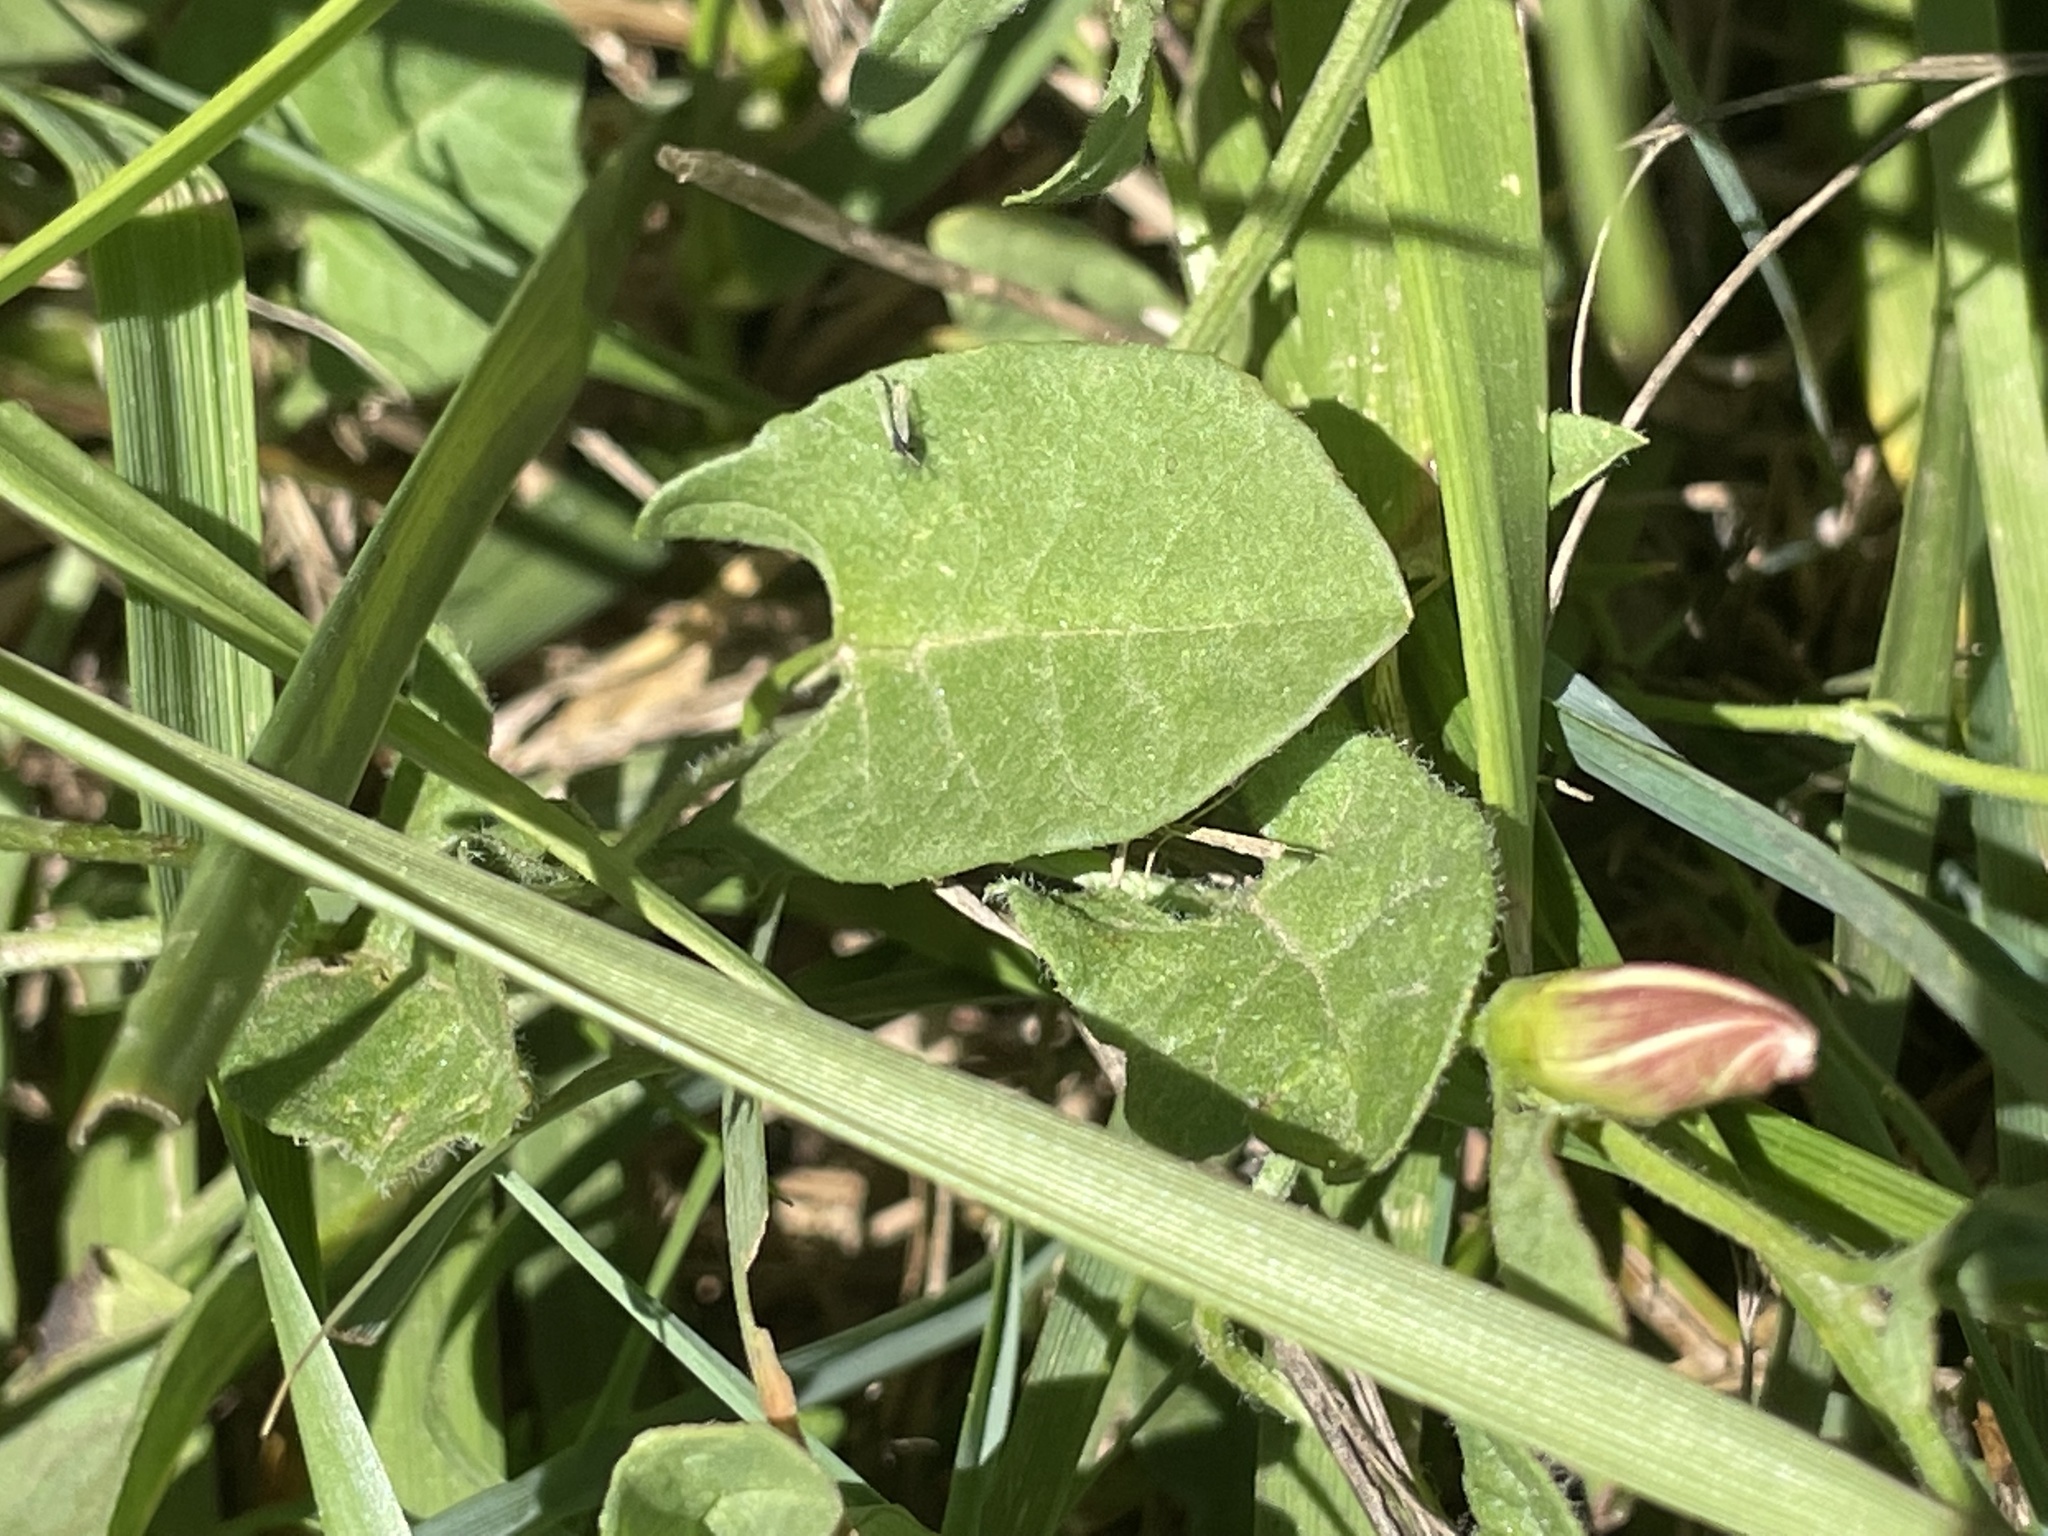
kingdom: Plantae
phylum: Tracheophyta
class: Magnoliopsida
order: Solanales
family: Convolvulaceae
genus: Convolvulus
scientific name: Convolvulus arvensis
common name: Field bindweed
